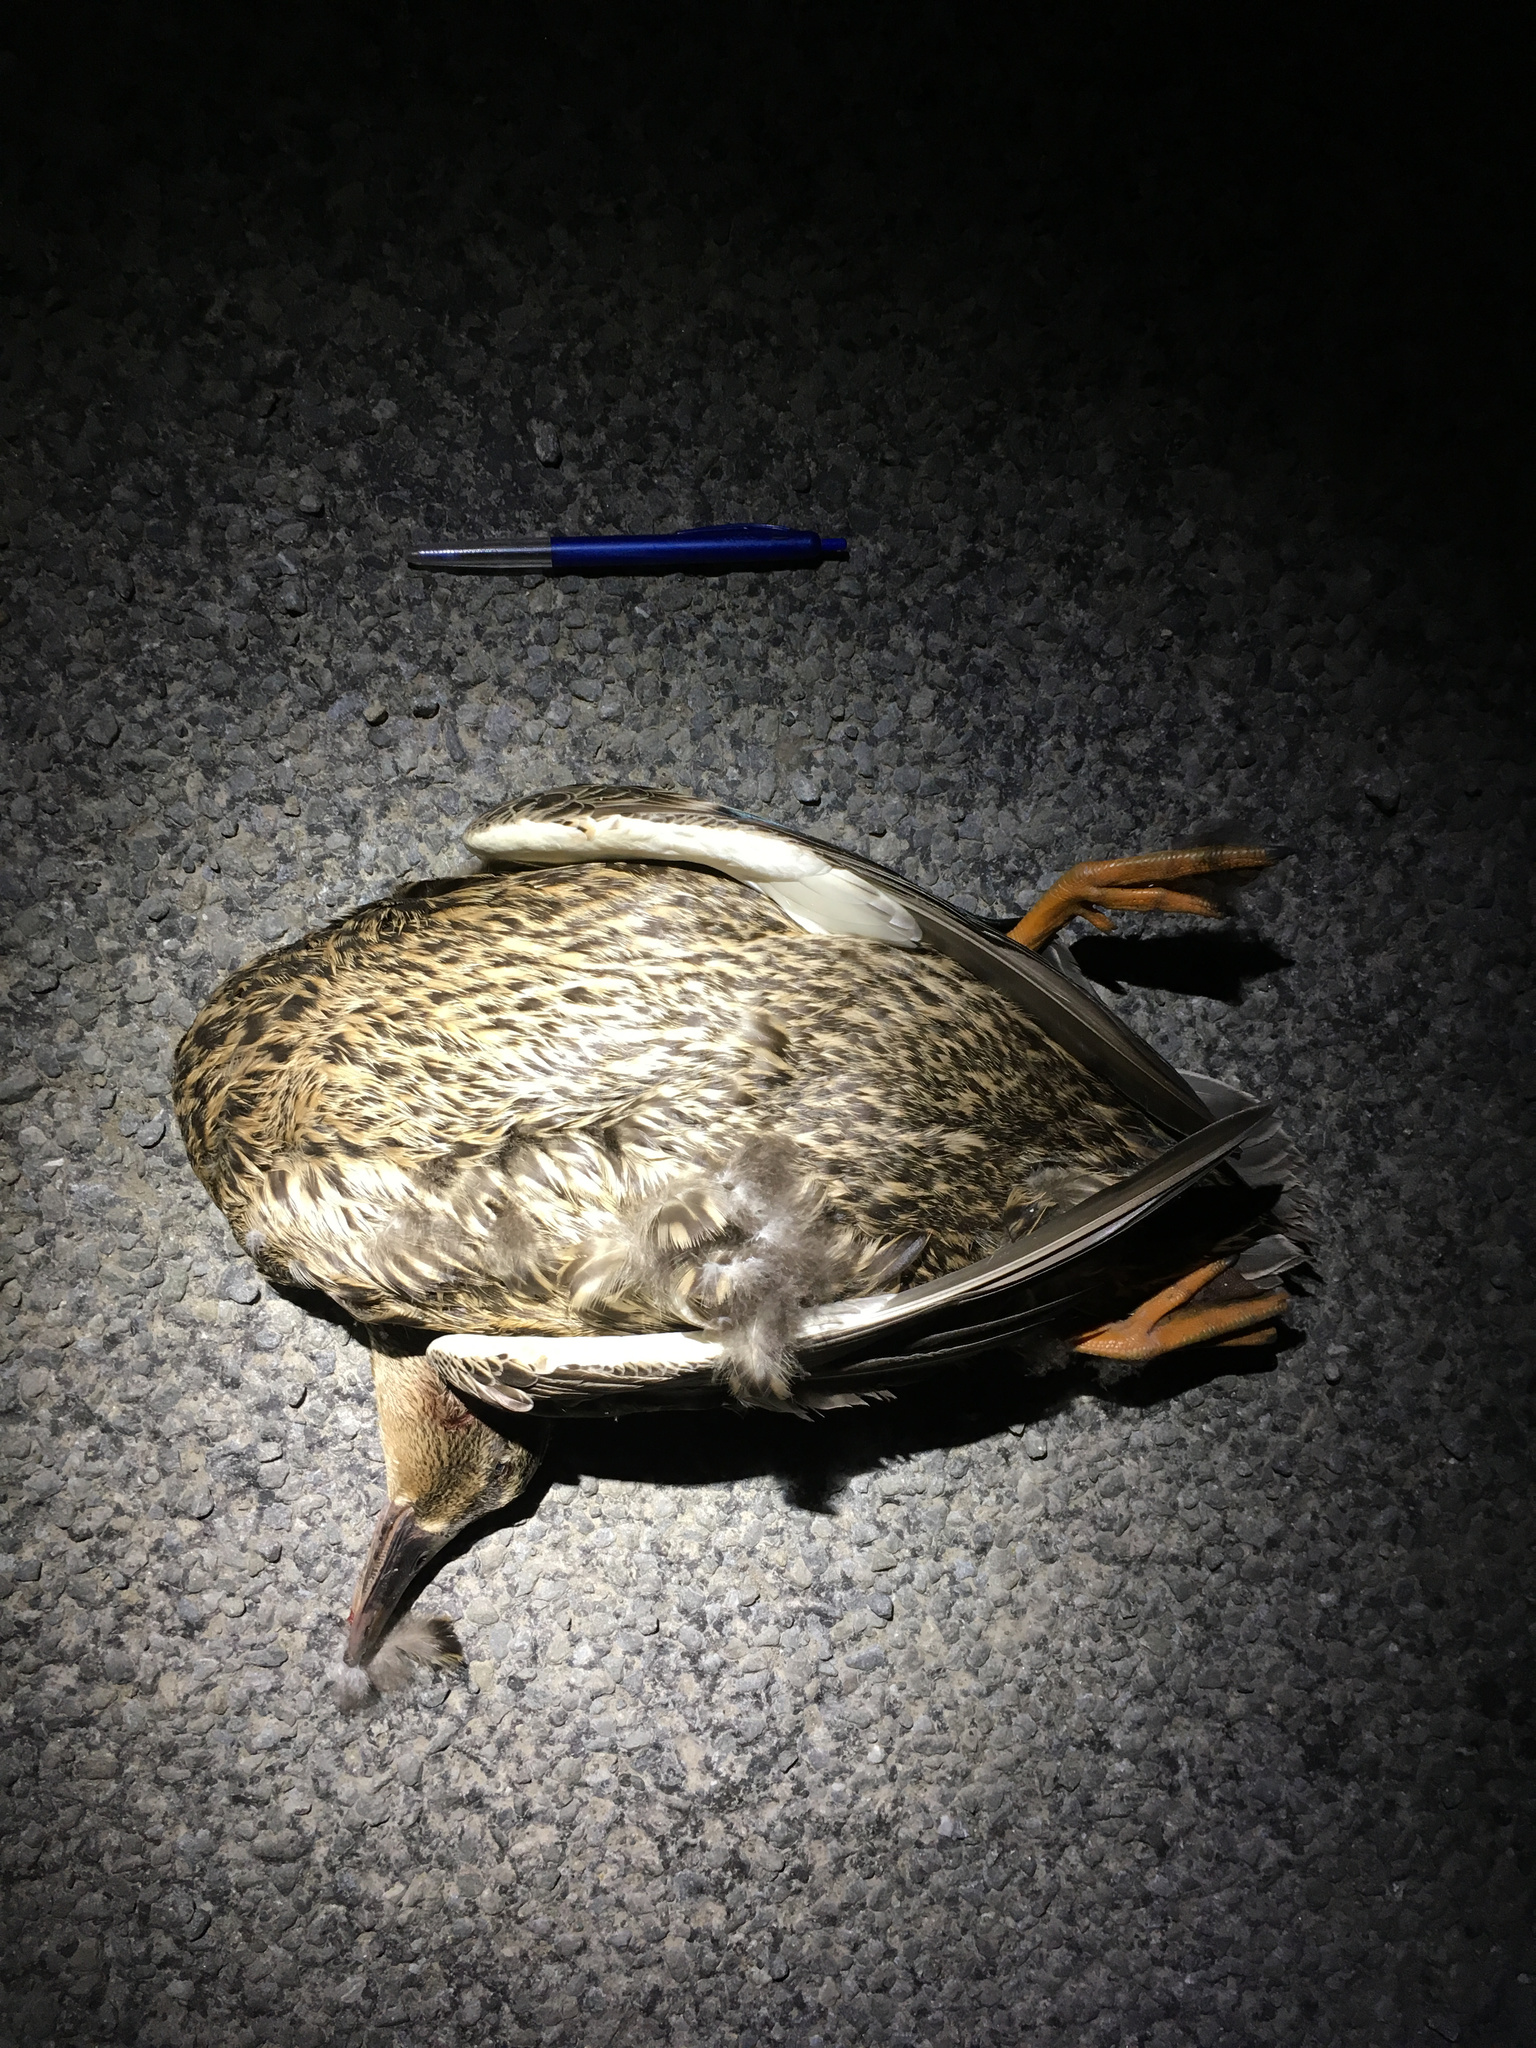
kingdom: Animalia
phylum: Chordata
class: Aves
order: Anseriformes
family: Anatidae
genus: Anas
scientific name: Anas
